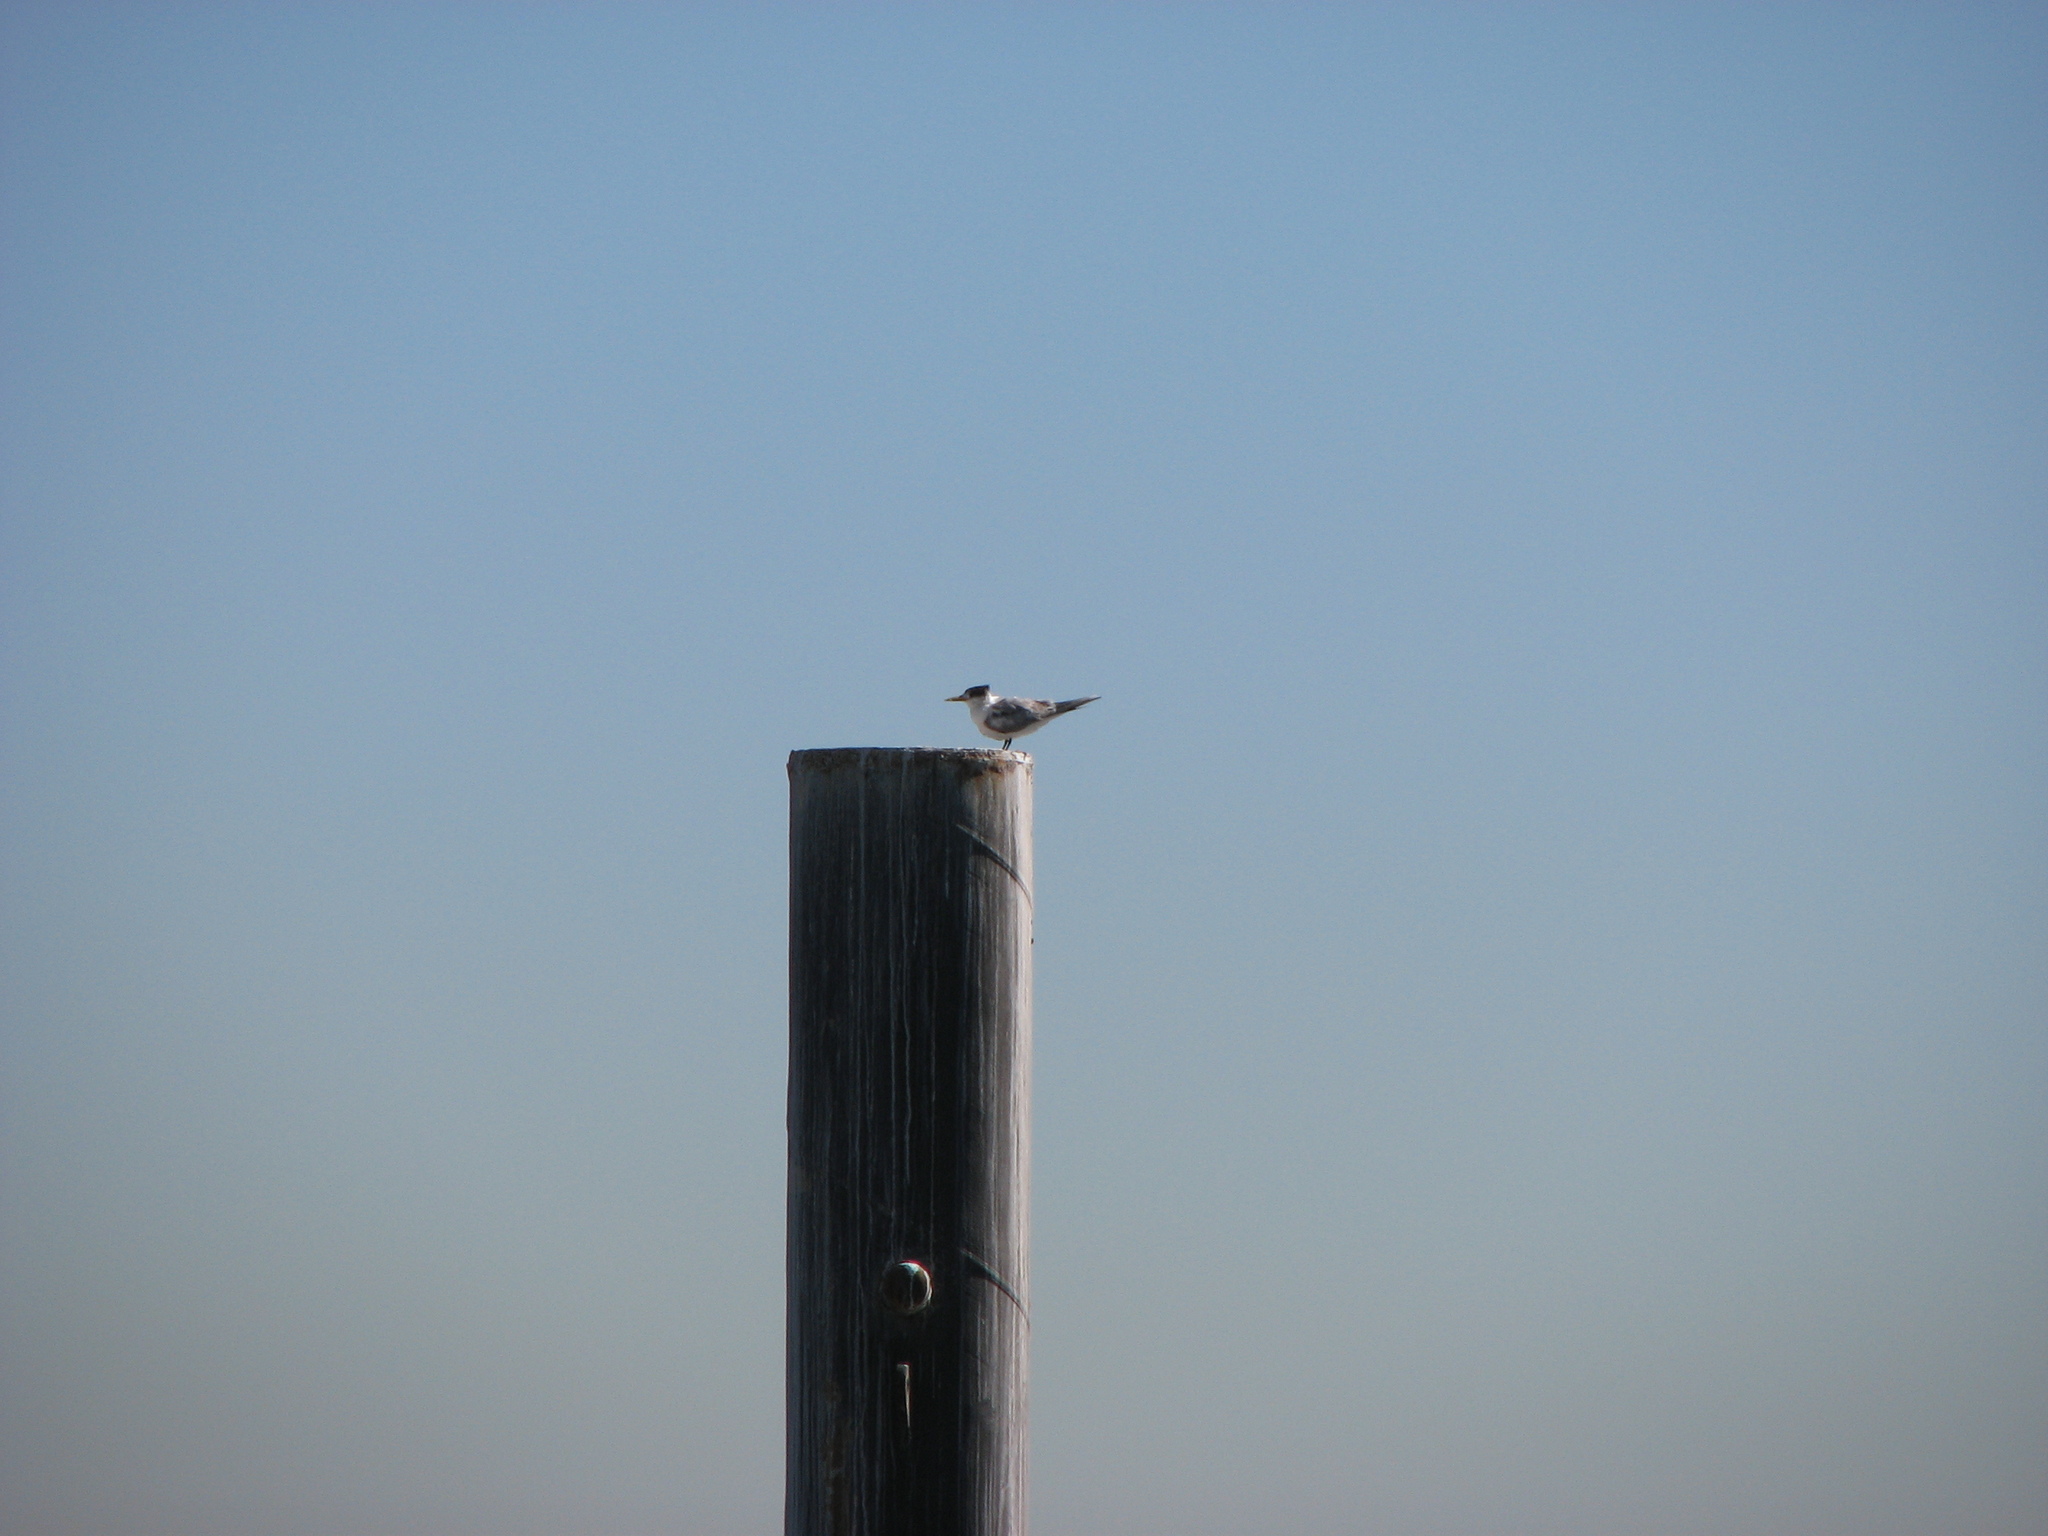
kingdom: Animalia
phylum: Chordata
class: Aves
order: Charadriiformes
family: Laridae
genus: Thalasseus
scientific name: Thalasseus bergii
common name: Greater crested tern
